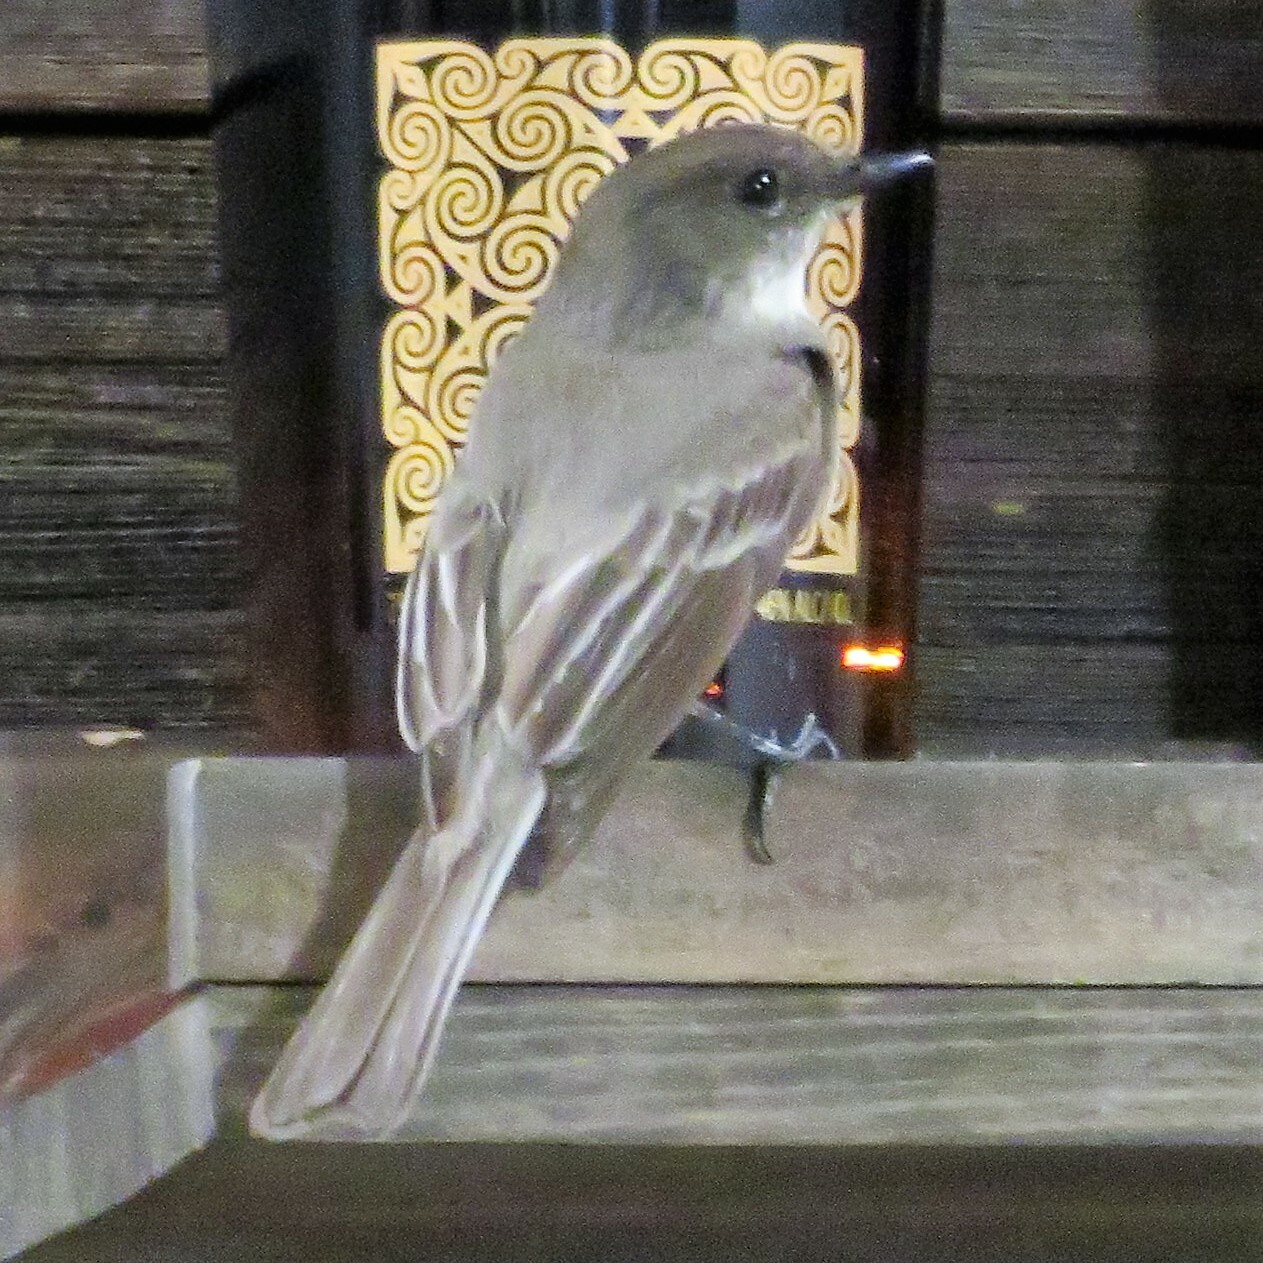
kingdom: Animalia
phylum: Chordata
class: Aves
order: Passeriformes
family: Tyrannidae
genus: Sayornis
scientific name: Sayornis phoebe
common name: Eastern phoebe
